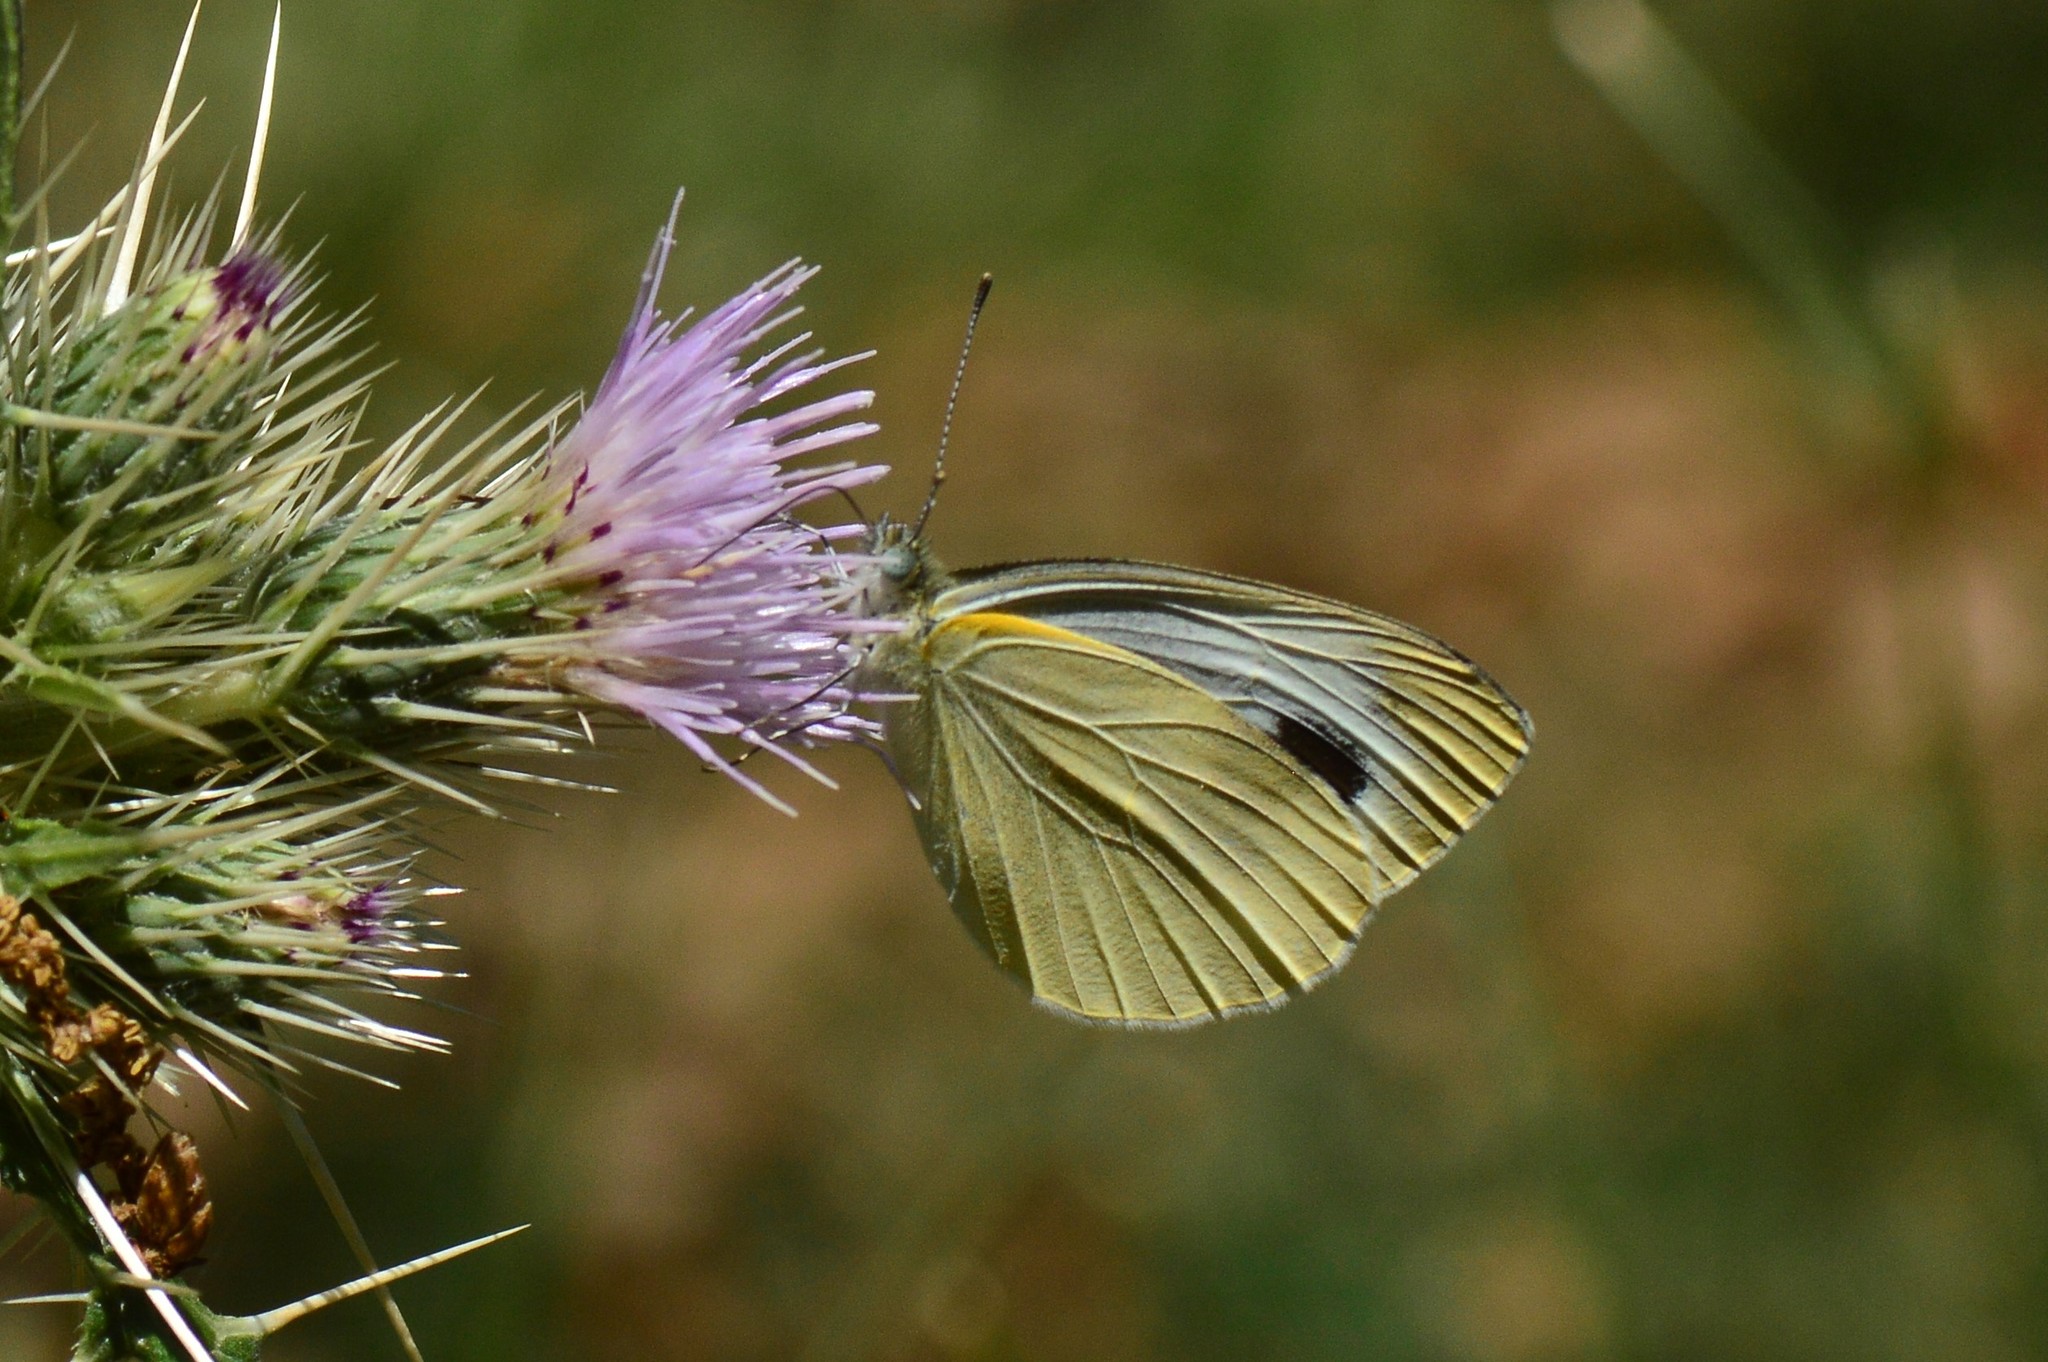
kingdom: Animalia
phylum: Arthropoda
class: Insecta
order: Lepidoptera
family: Pieridae
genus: Pieris
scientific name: Pieris canidia
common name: Indian cabbage white
